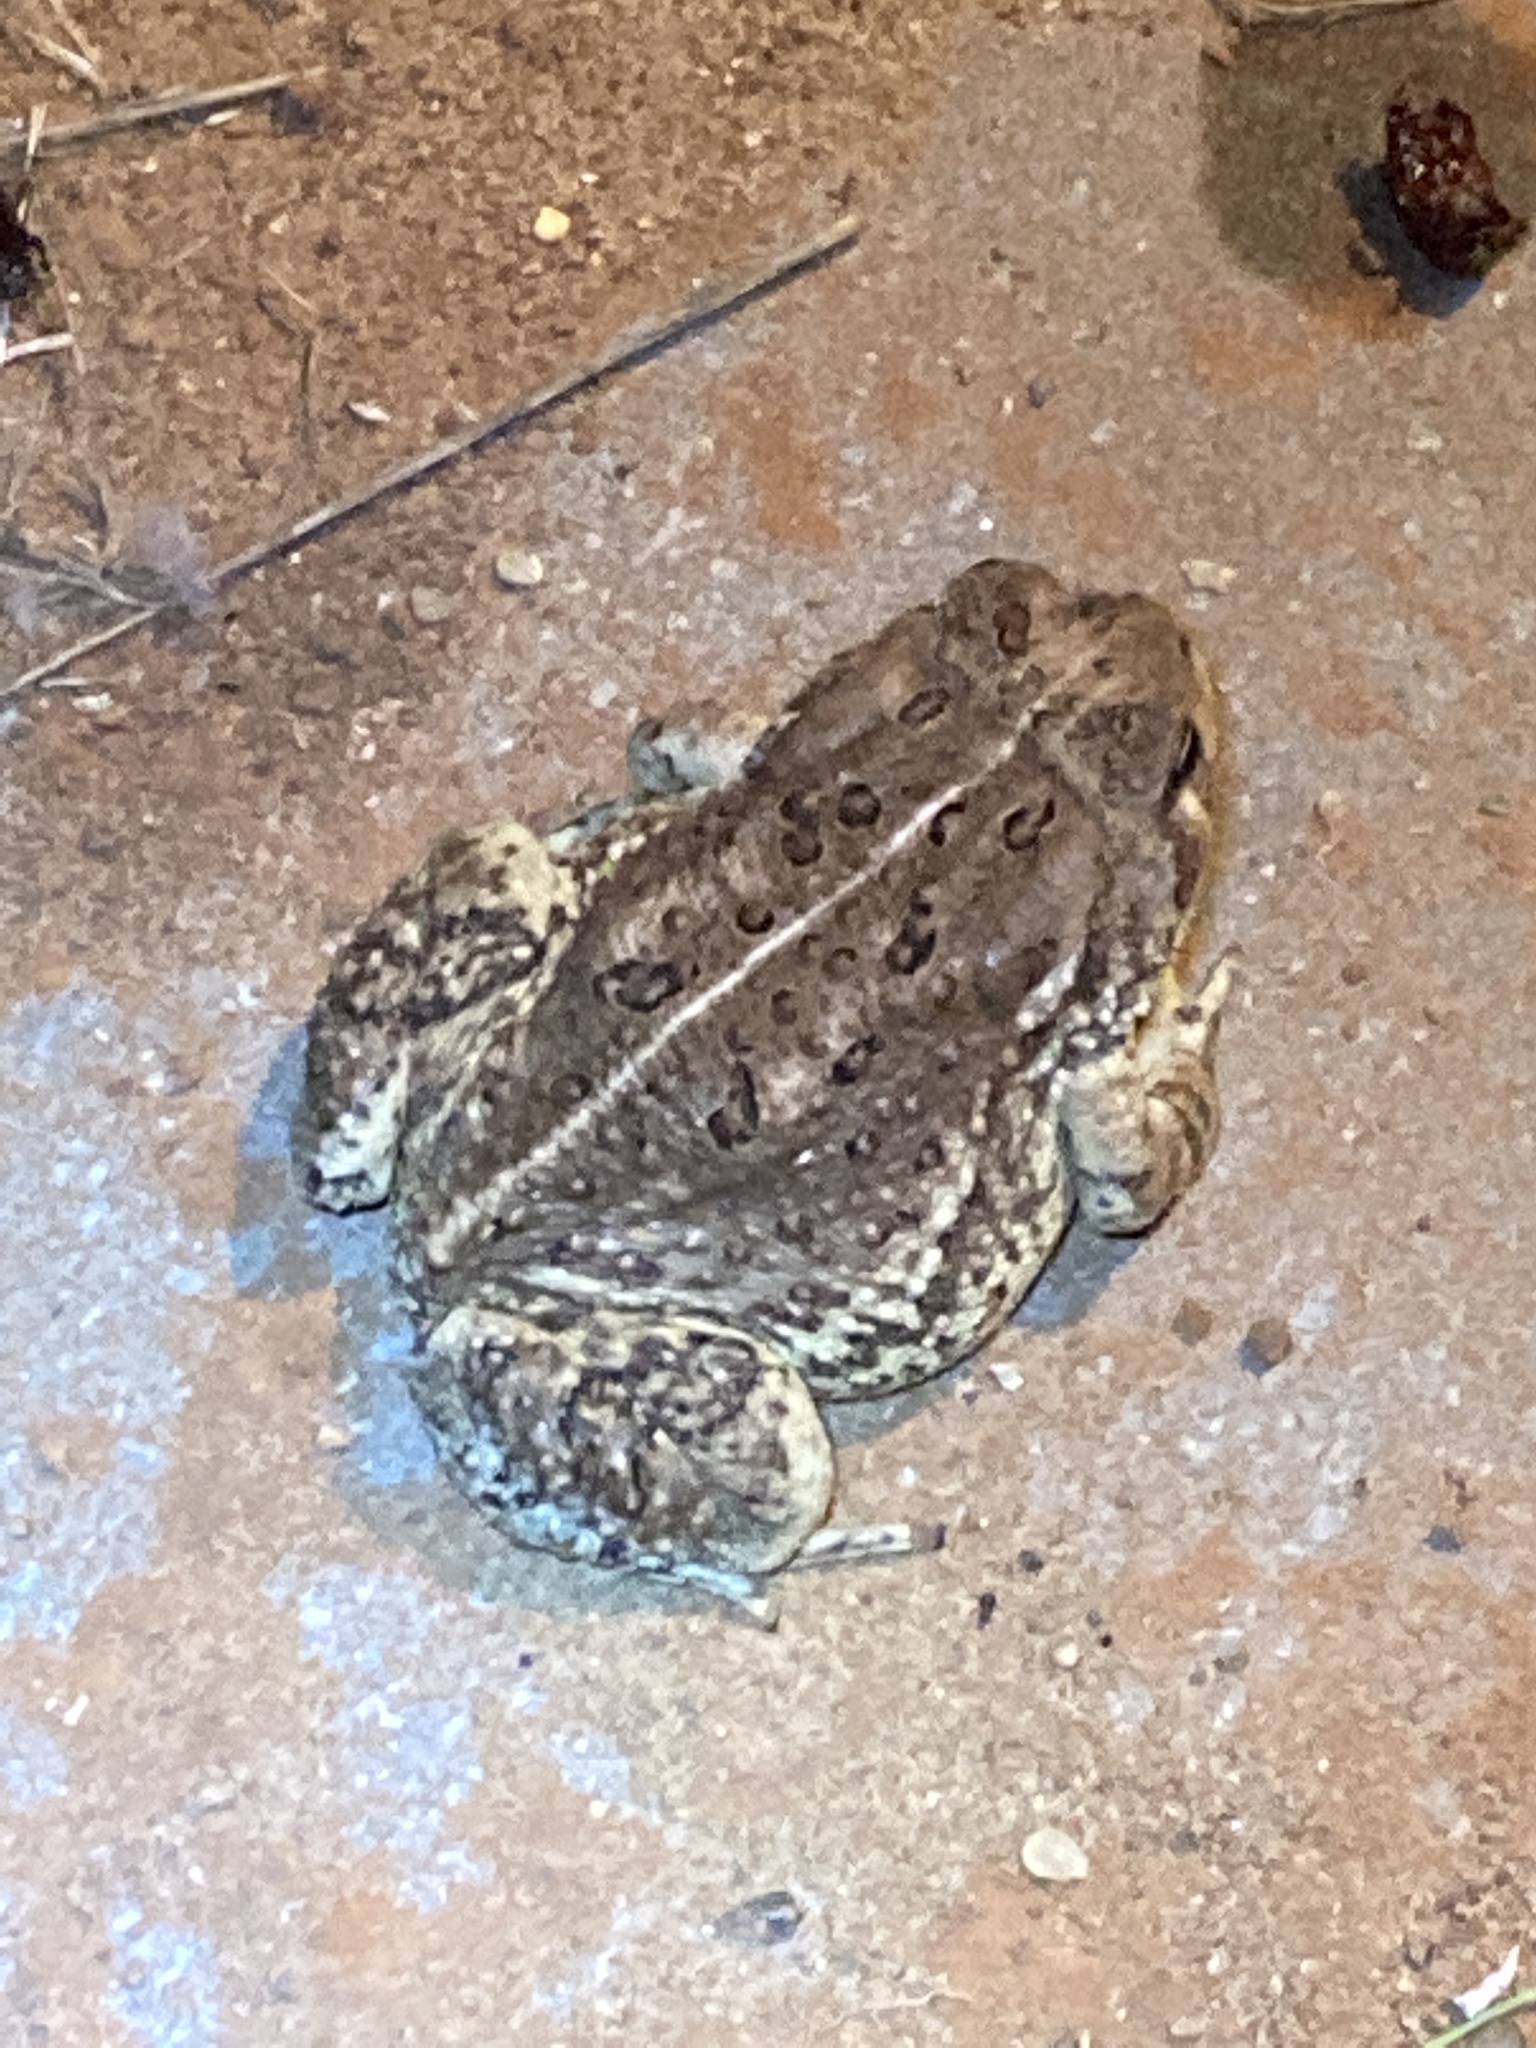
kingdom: Animalia
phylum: Chordata
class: Amphibia
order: Anura
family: Bufonidae
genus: Anaxyrus
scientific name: Anaxyrus woodhousii
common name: Woodhouse's toad
